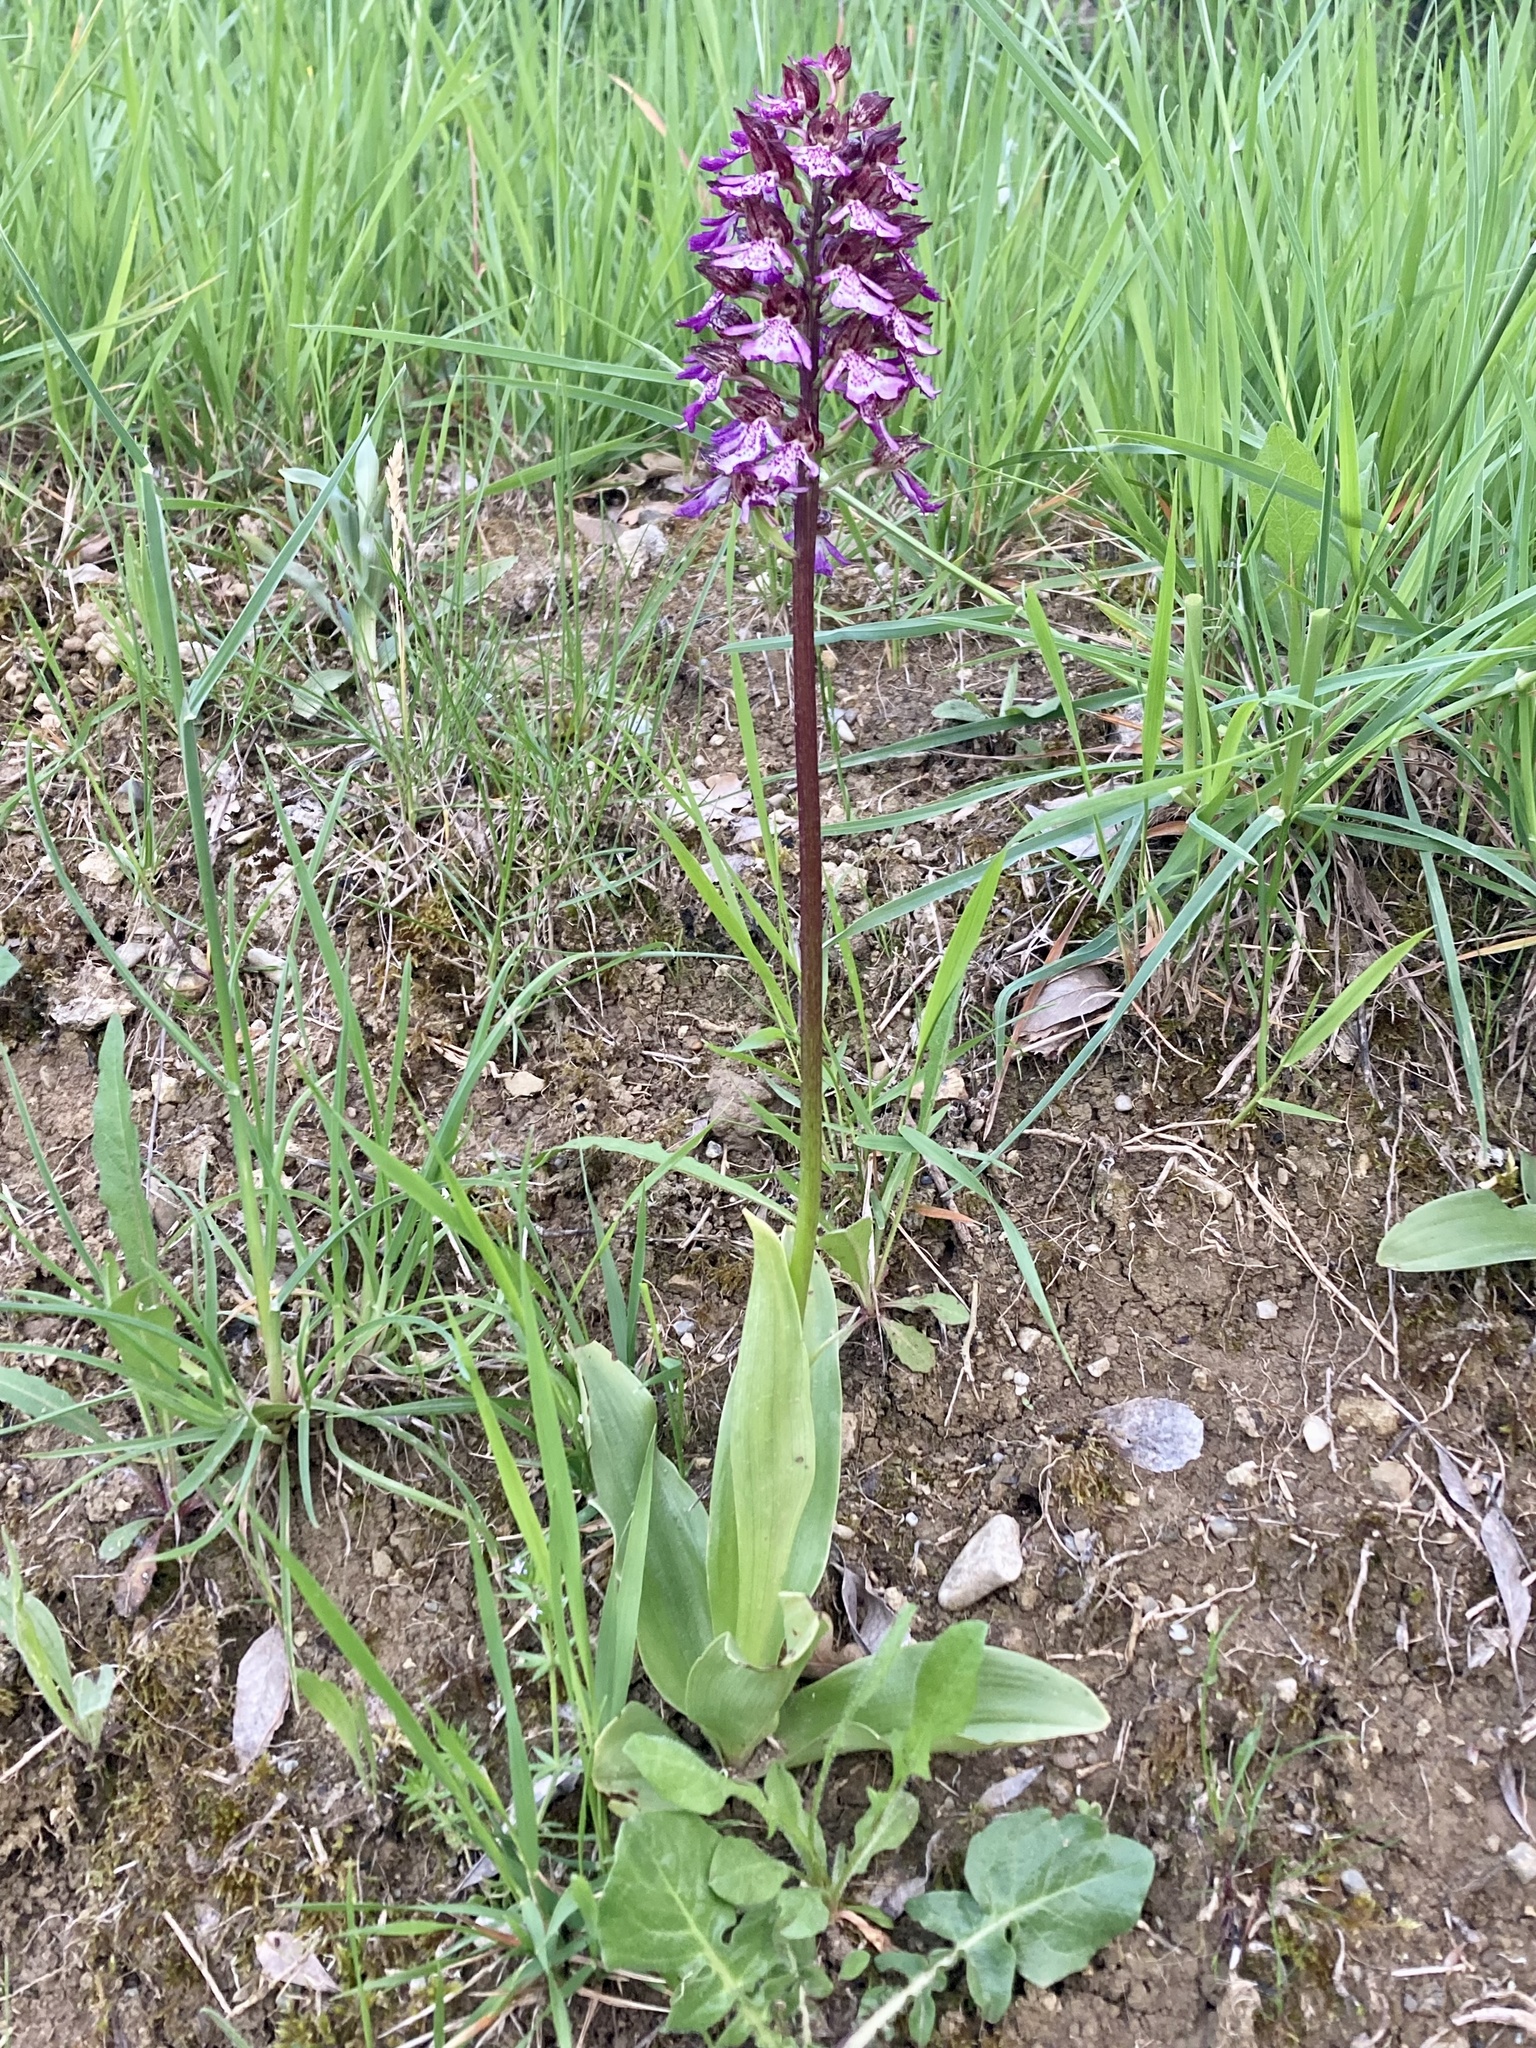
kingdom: Plantae
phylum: Tracheophyta
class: Liliopsida
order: Asparagales
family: Orchidaceae
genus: Orchis
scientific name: Orchis purpurea
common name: Lady orchid
